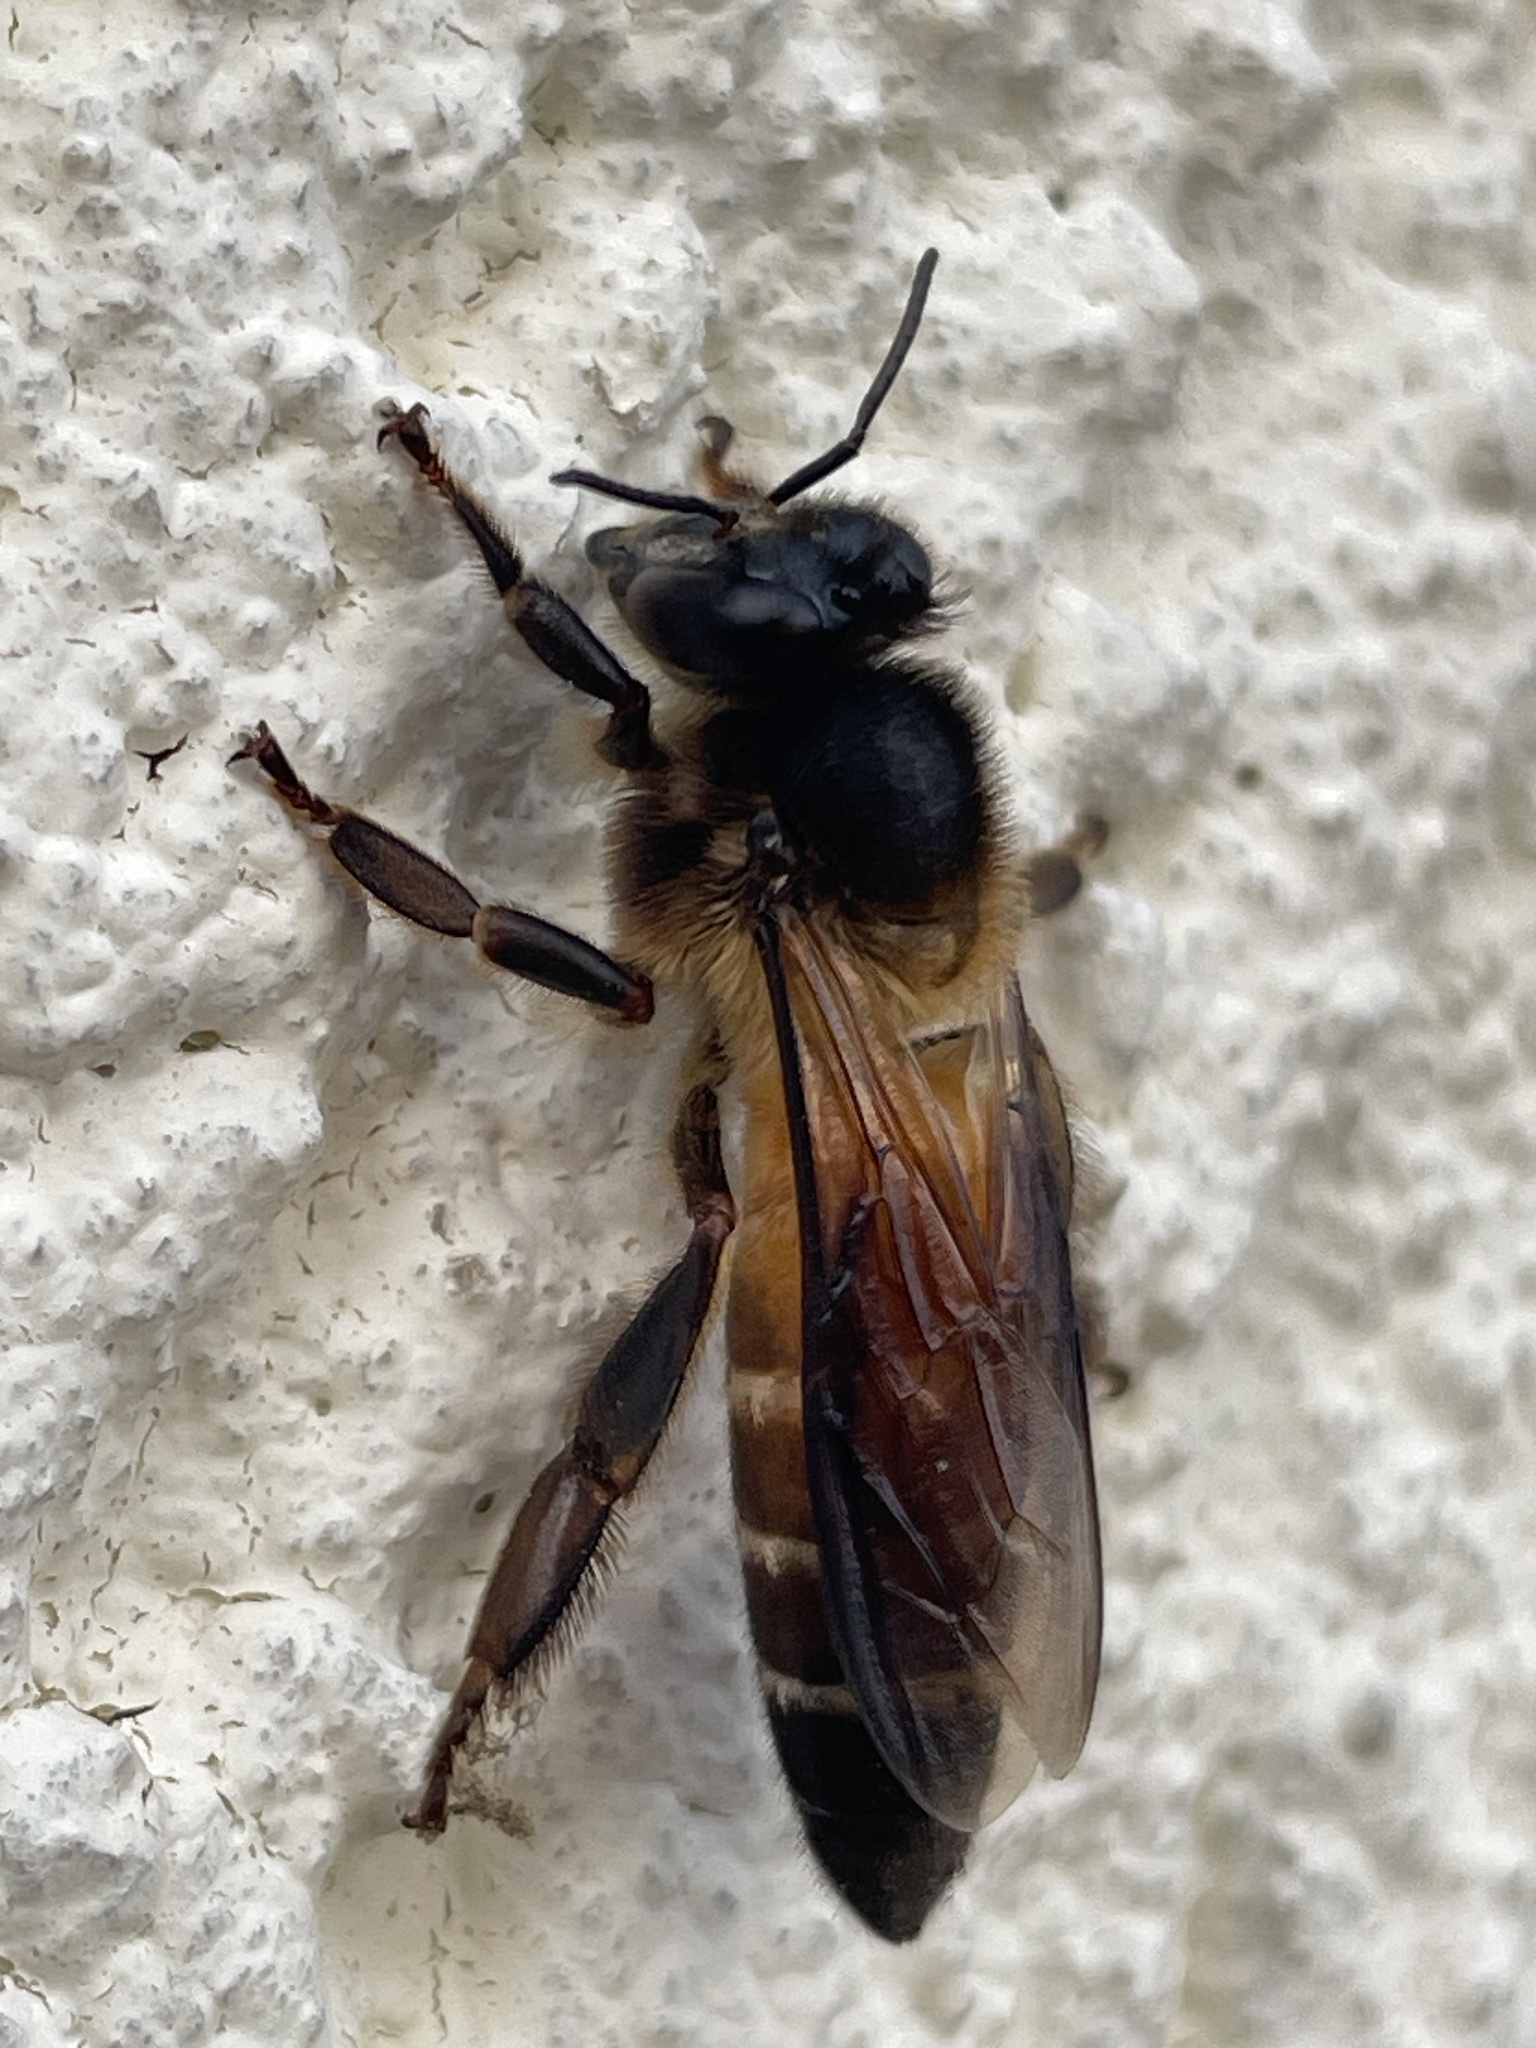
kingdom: Animalia
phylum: Arthropoda
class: Insecta
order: Hymenoptera
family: Apidae
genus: Apis
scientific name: Apis dorsata
